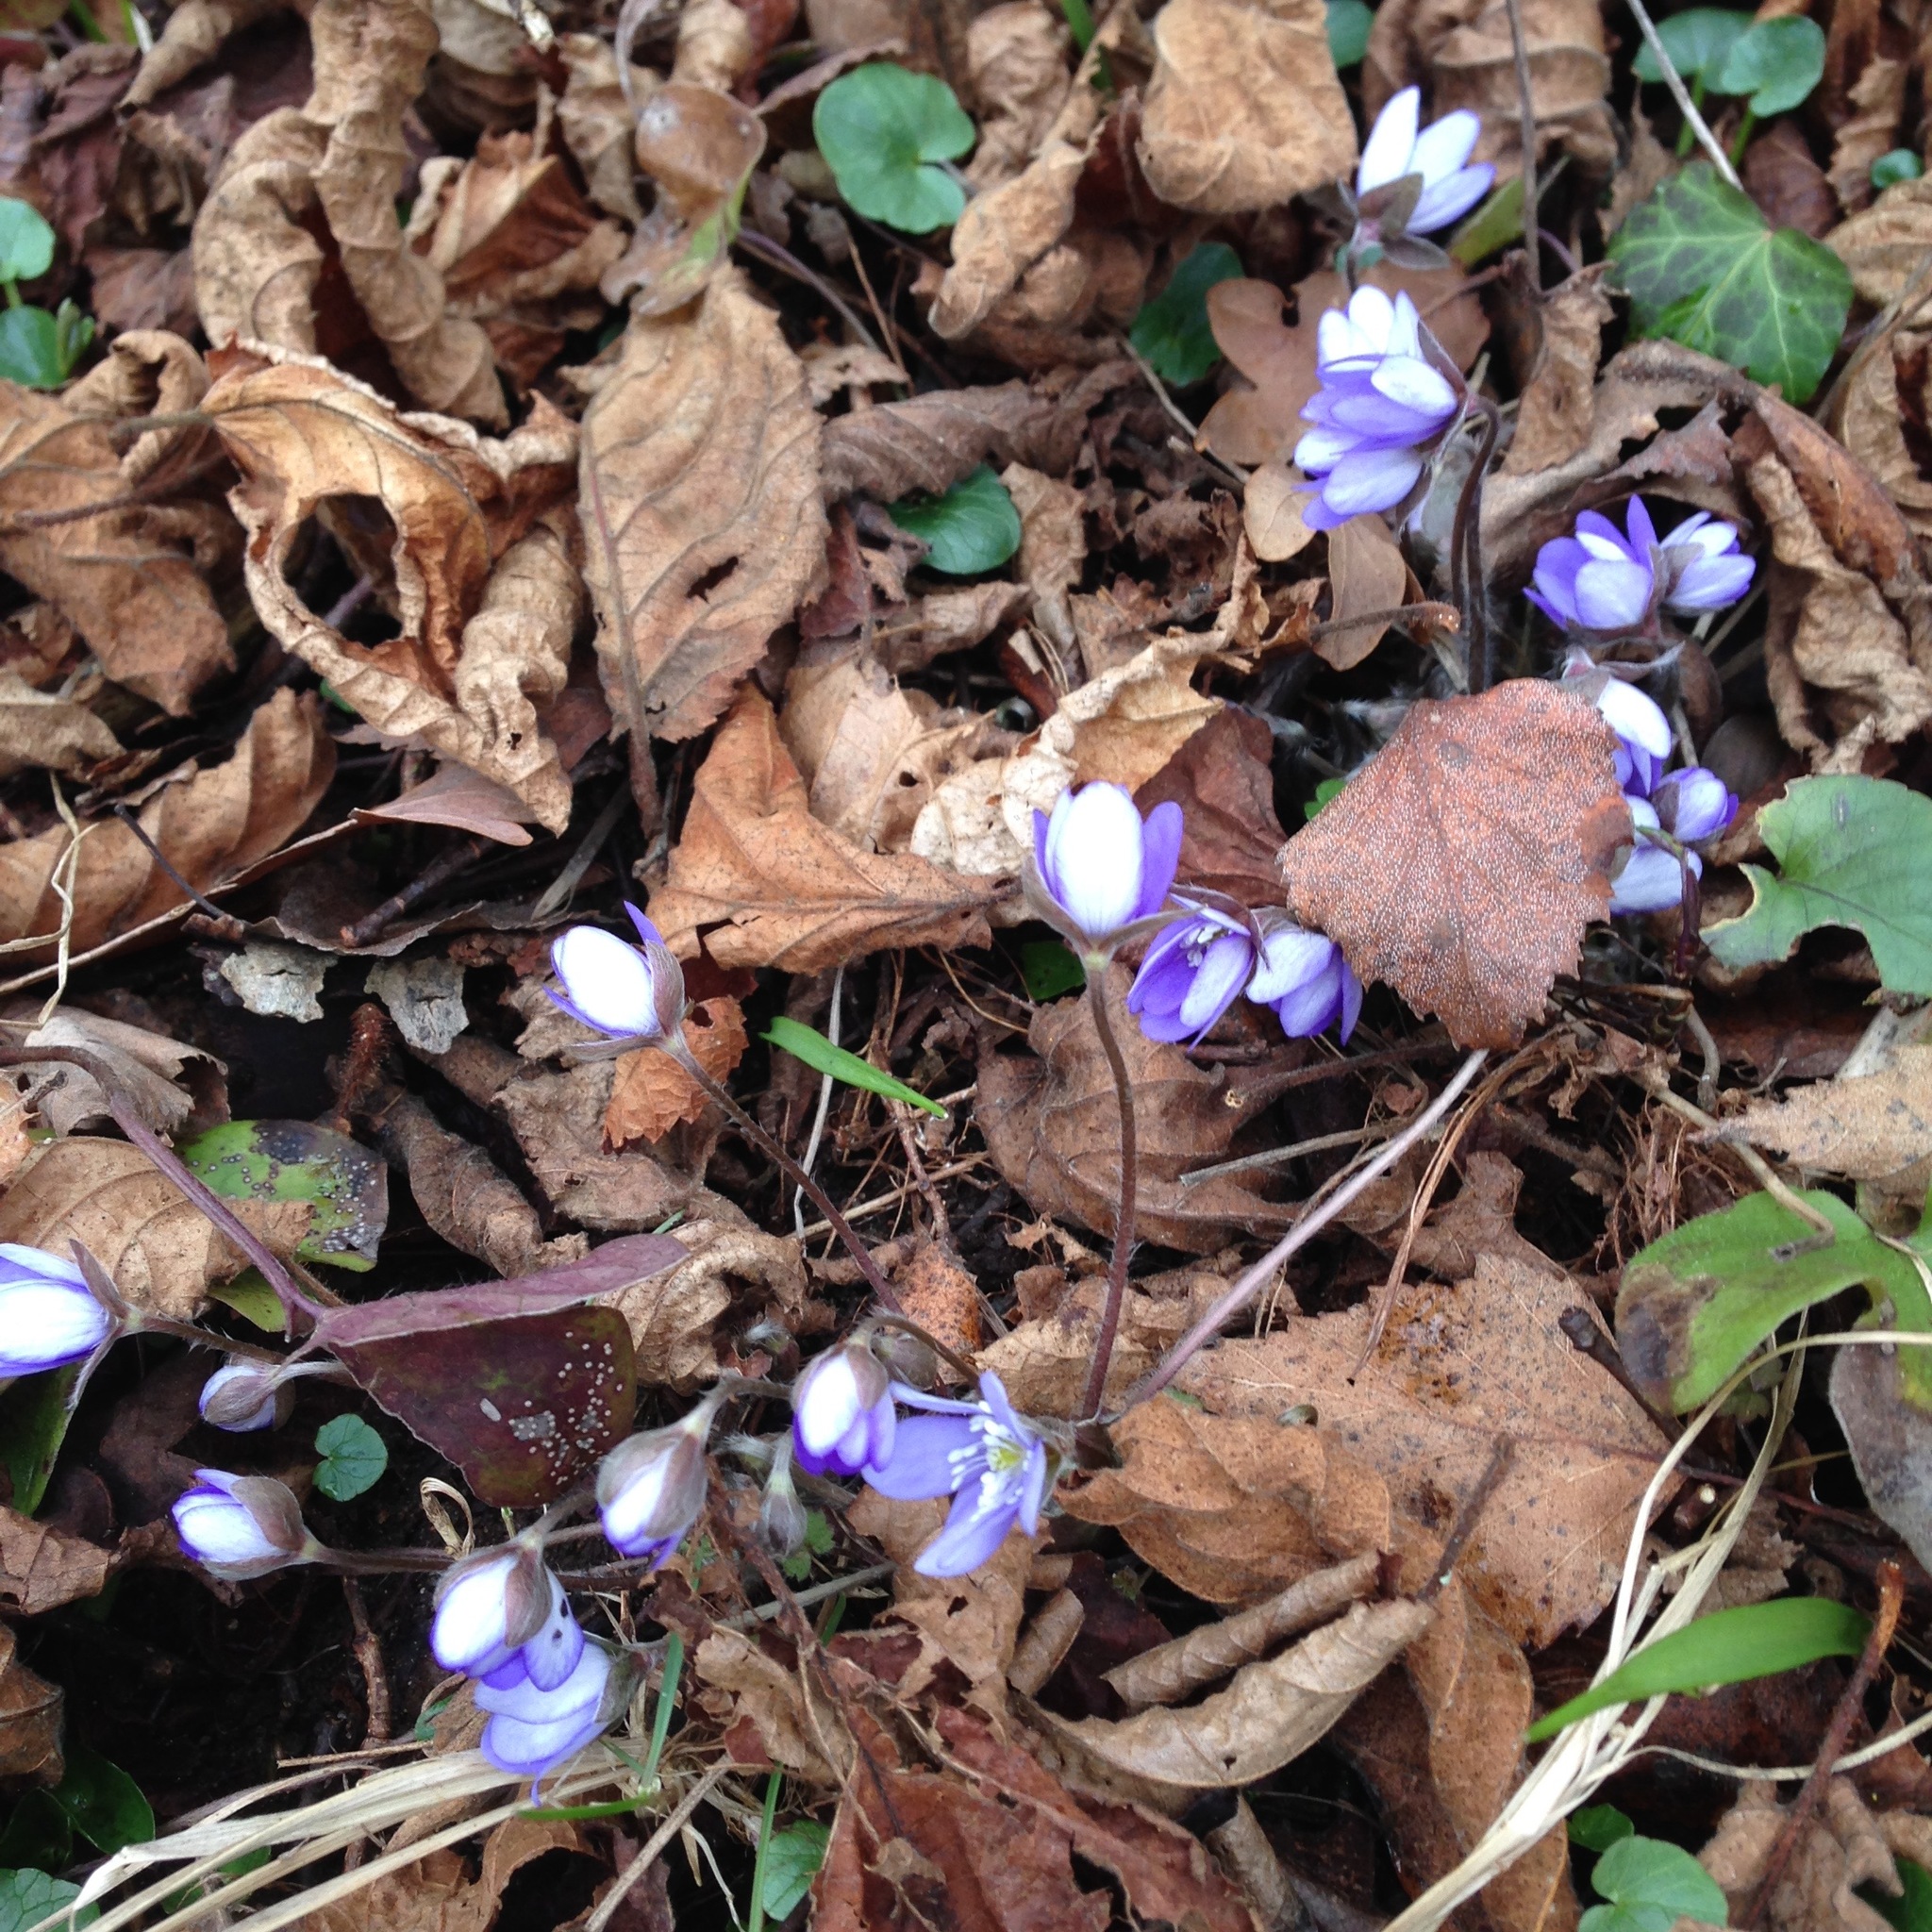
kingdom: Plantae
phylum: Tracheophyta
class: Magnoliopsida
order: Ranunculales
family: Ranunculaceae
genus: Hepatica
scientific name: Hepatica nobilis
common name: Liverleaf
